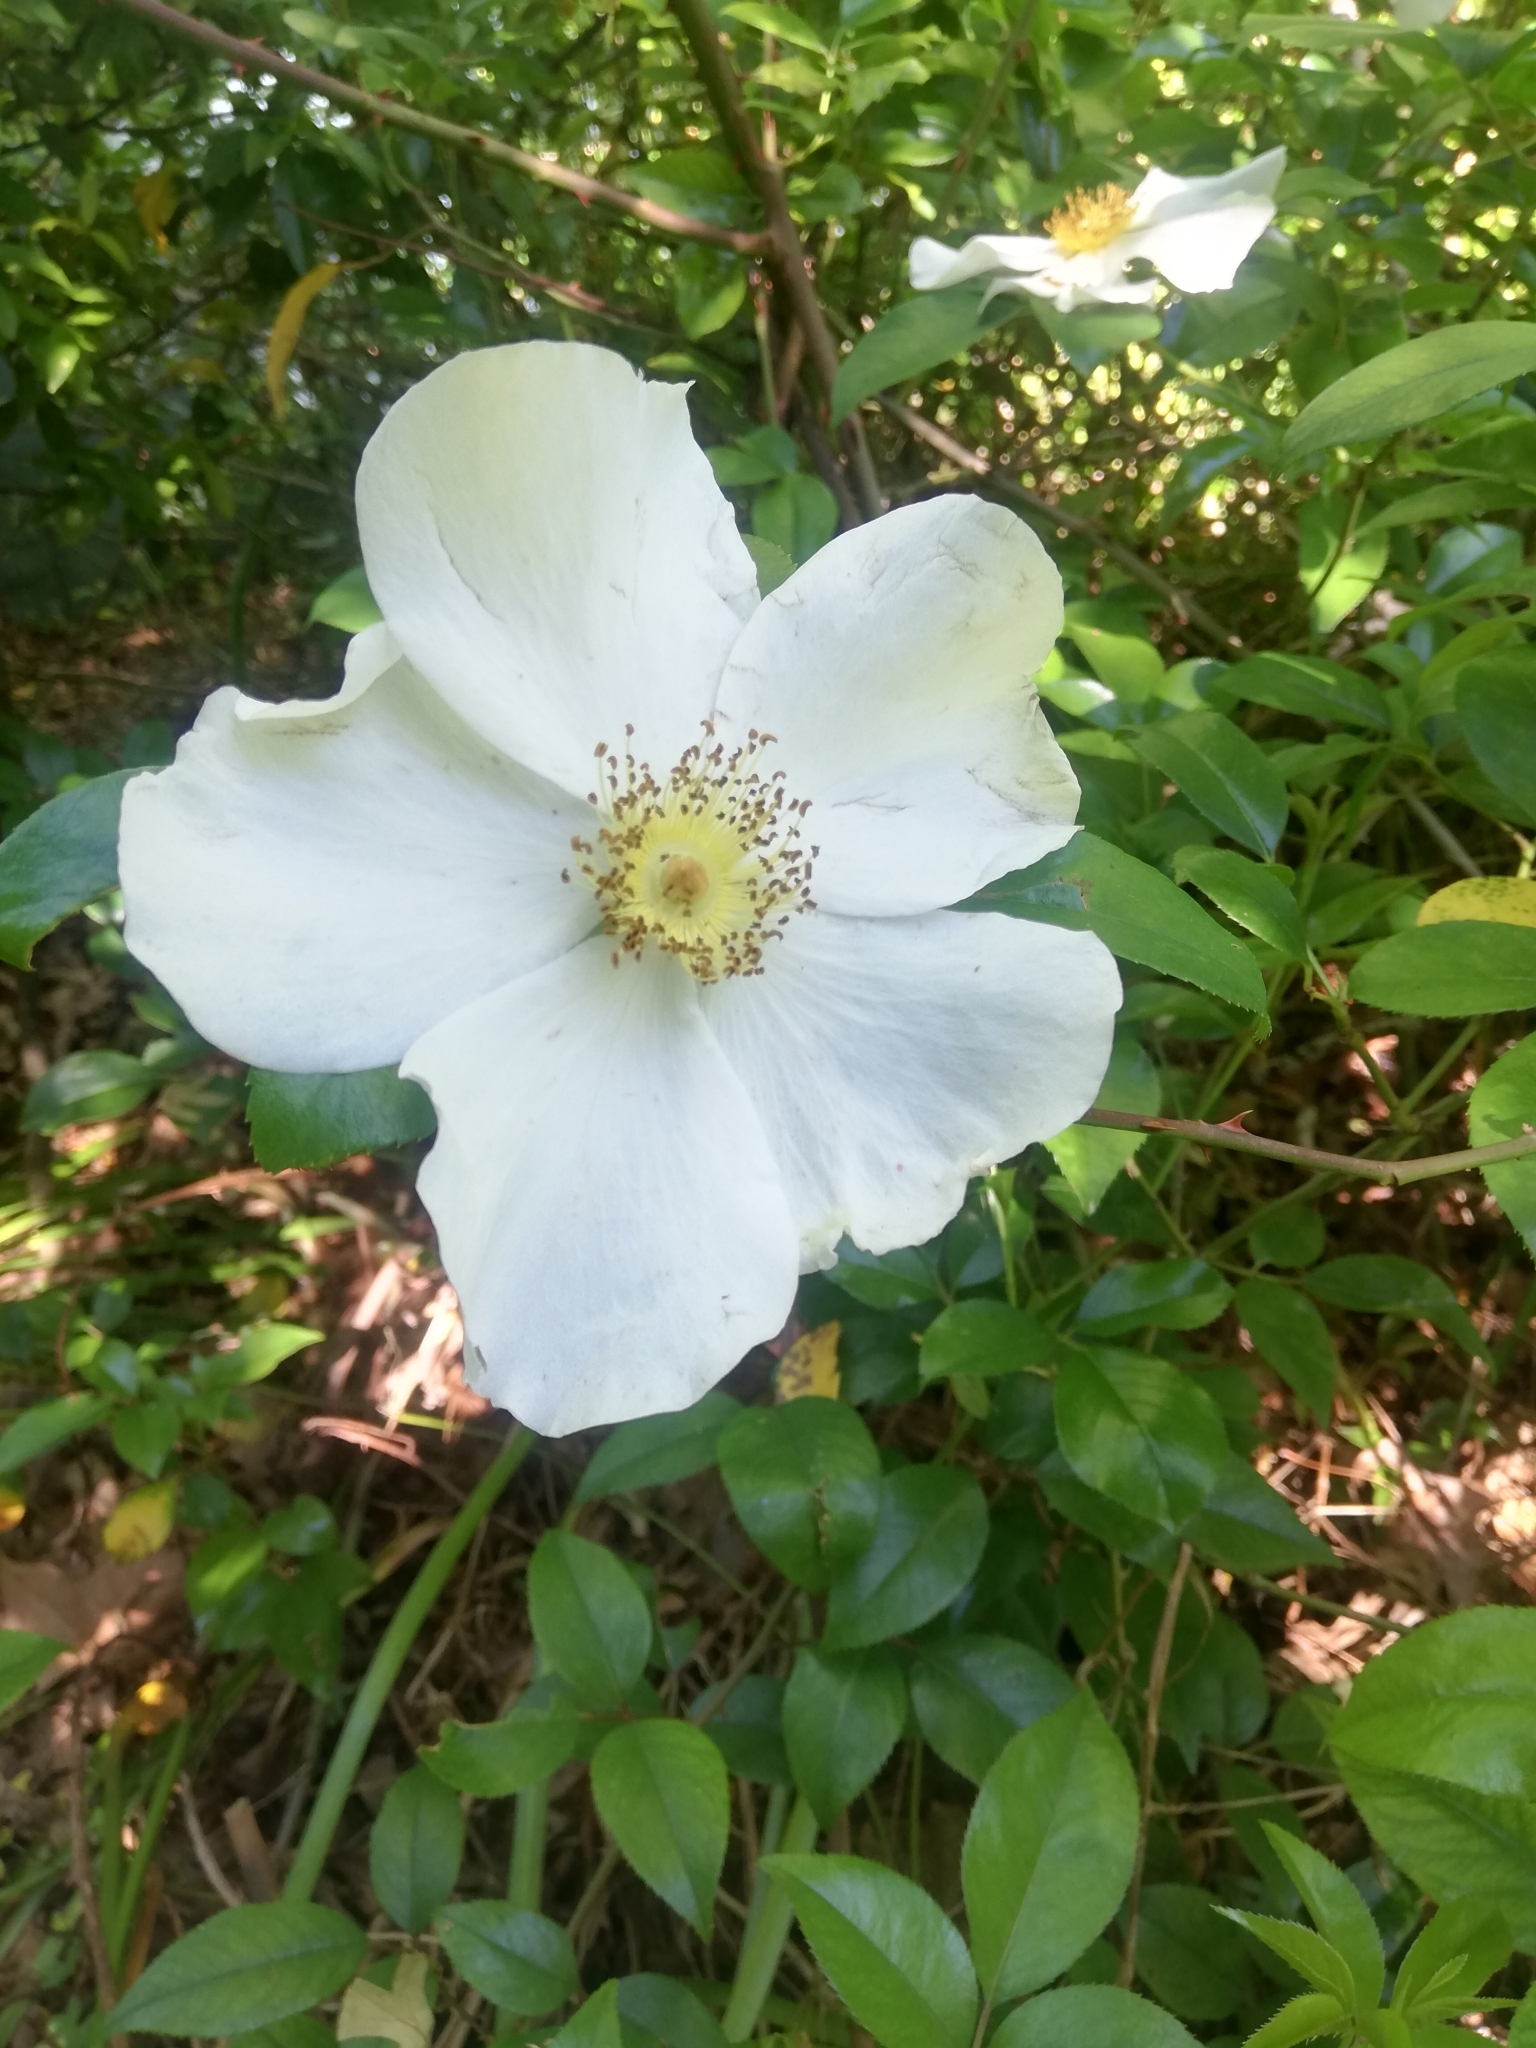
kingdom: Plantae
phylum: Tracheophyta
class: Magnoliopsida
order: Rosales
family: Rosaceae
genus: Rosa
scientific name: Rosa laevigata
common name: Cherokee rose
